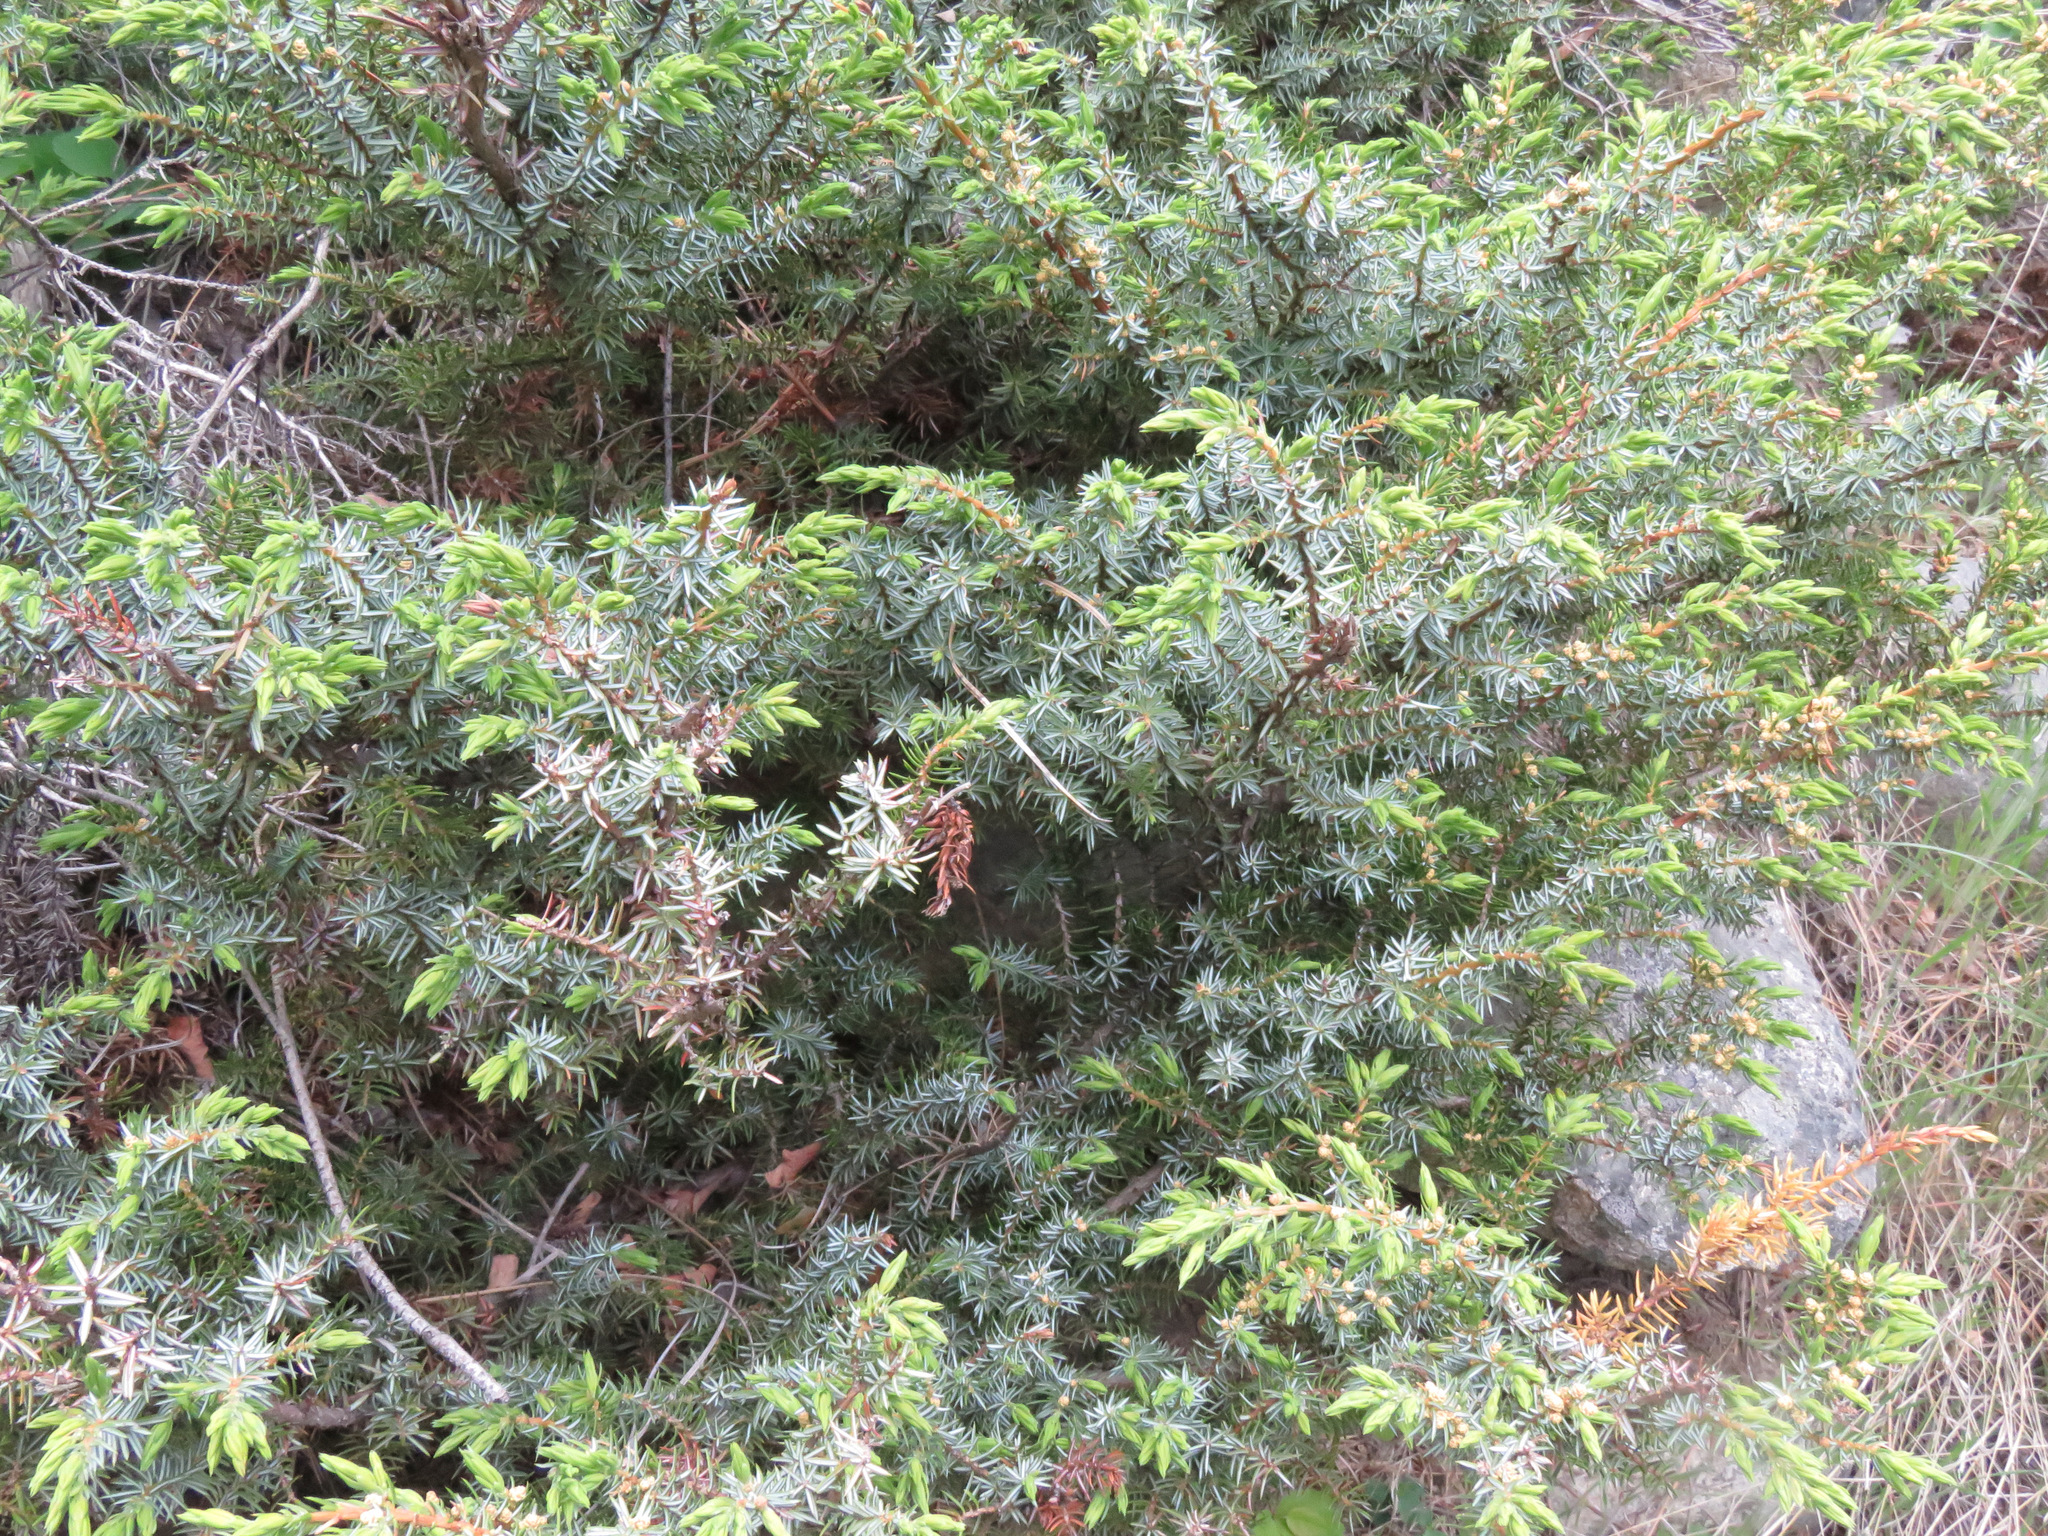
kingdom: Plantae
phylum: Tracheophyta
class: Pinopsida
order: Pinales
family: Cupressaceae
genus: Juniperus
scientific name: Juniperus communis
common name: Common juniper
